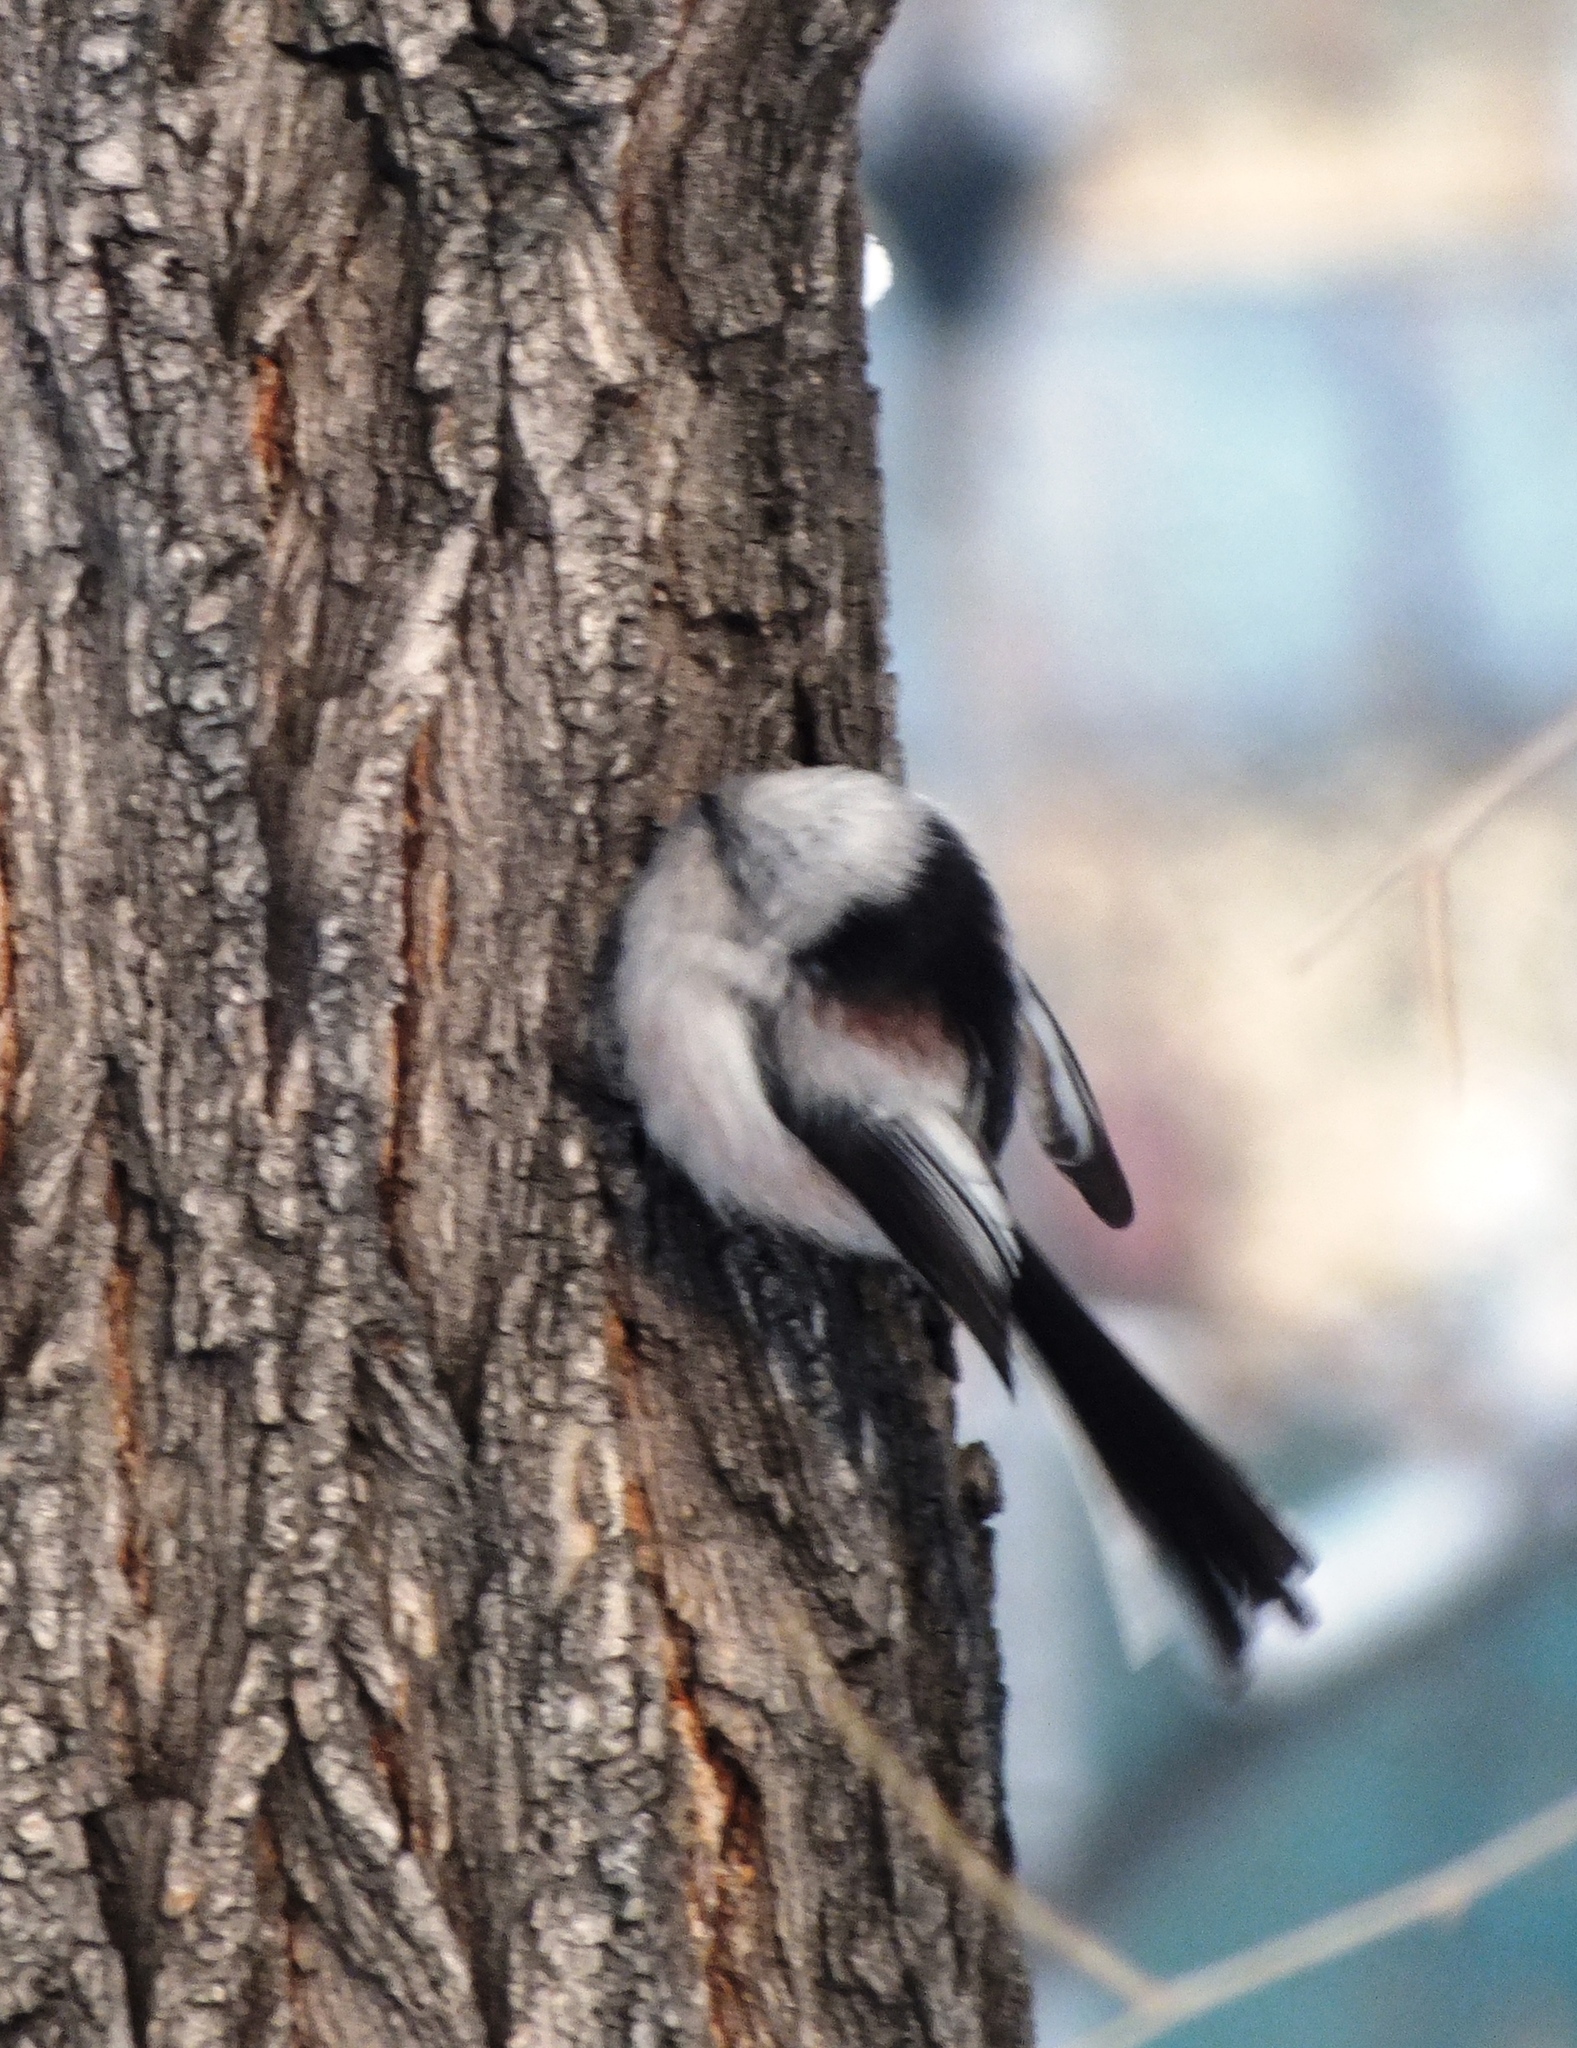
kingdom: Animalia
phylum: Chordata
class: Aves
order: Passeriformes
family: Aegithalidae
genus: Aegithalos
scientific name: Aegithalos caudatus
